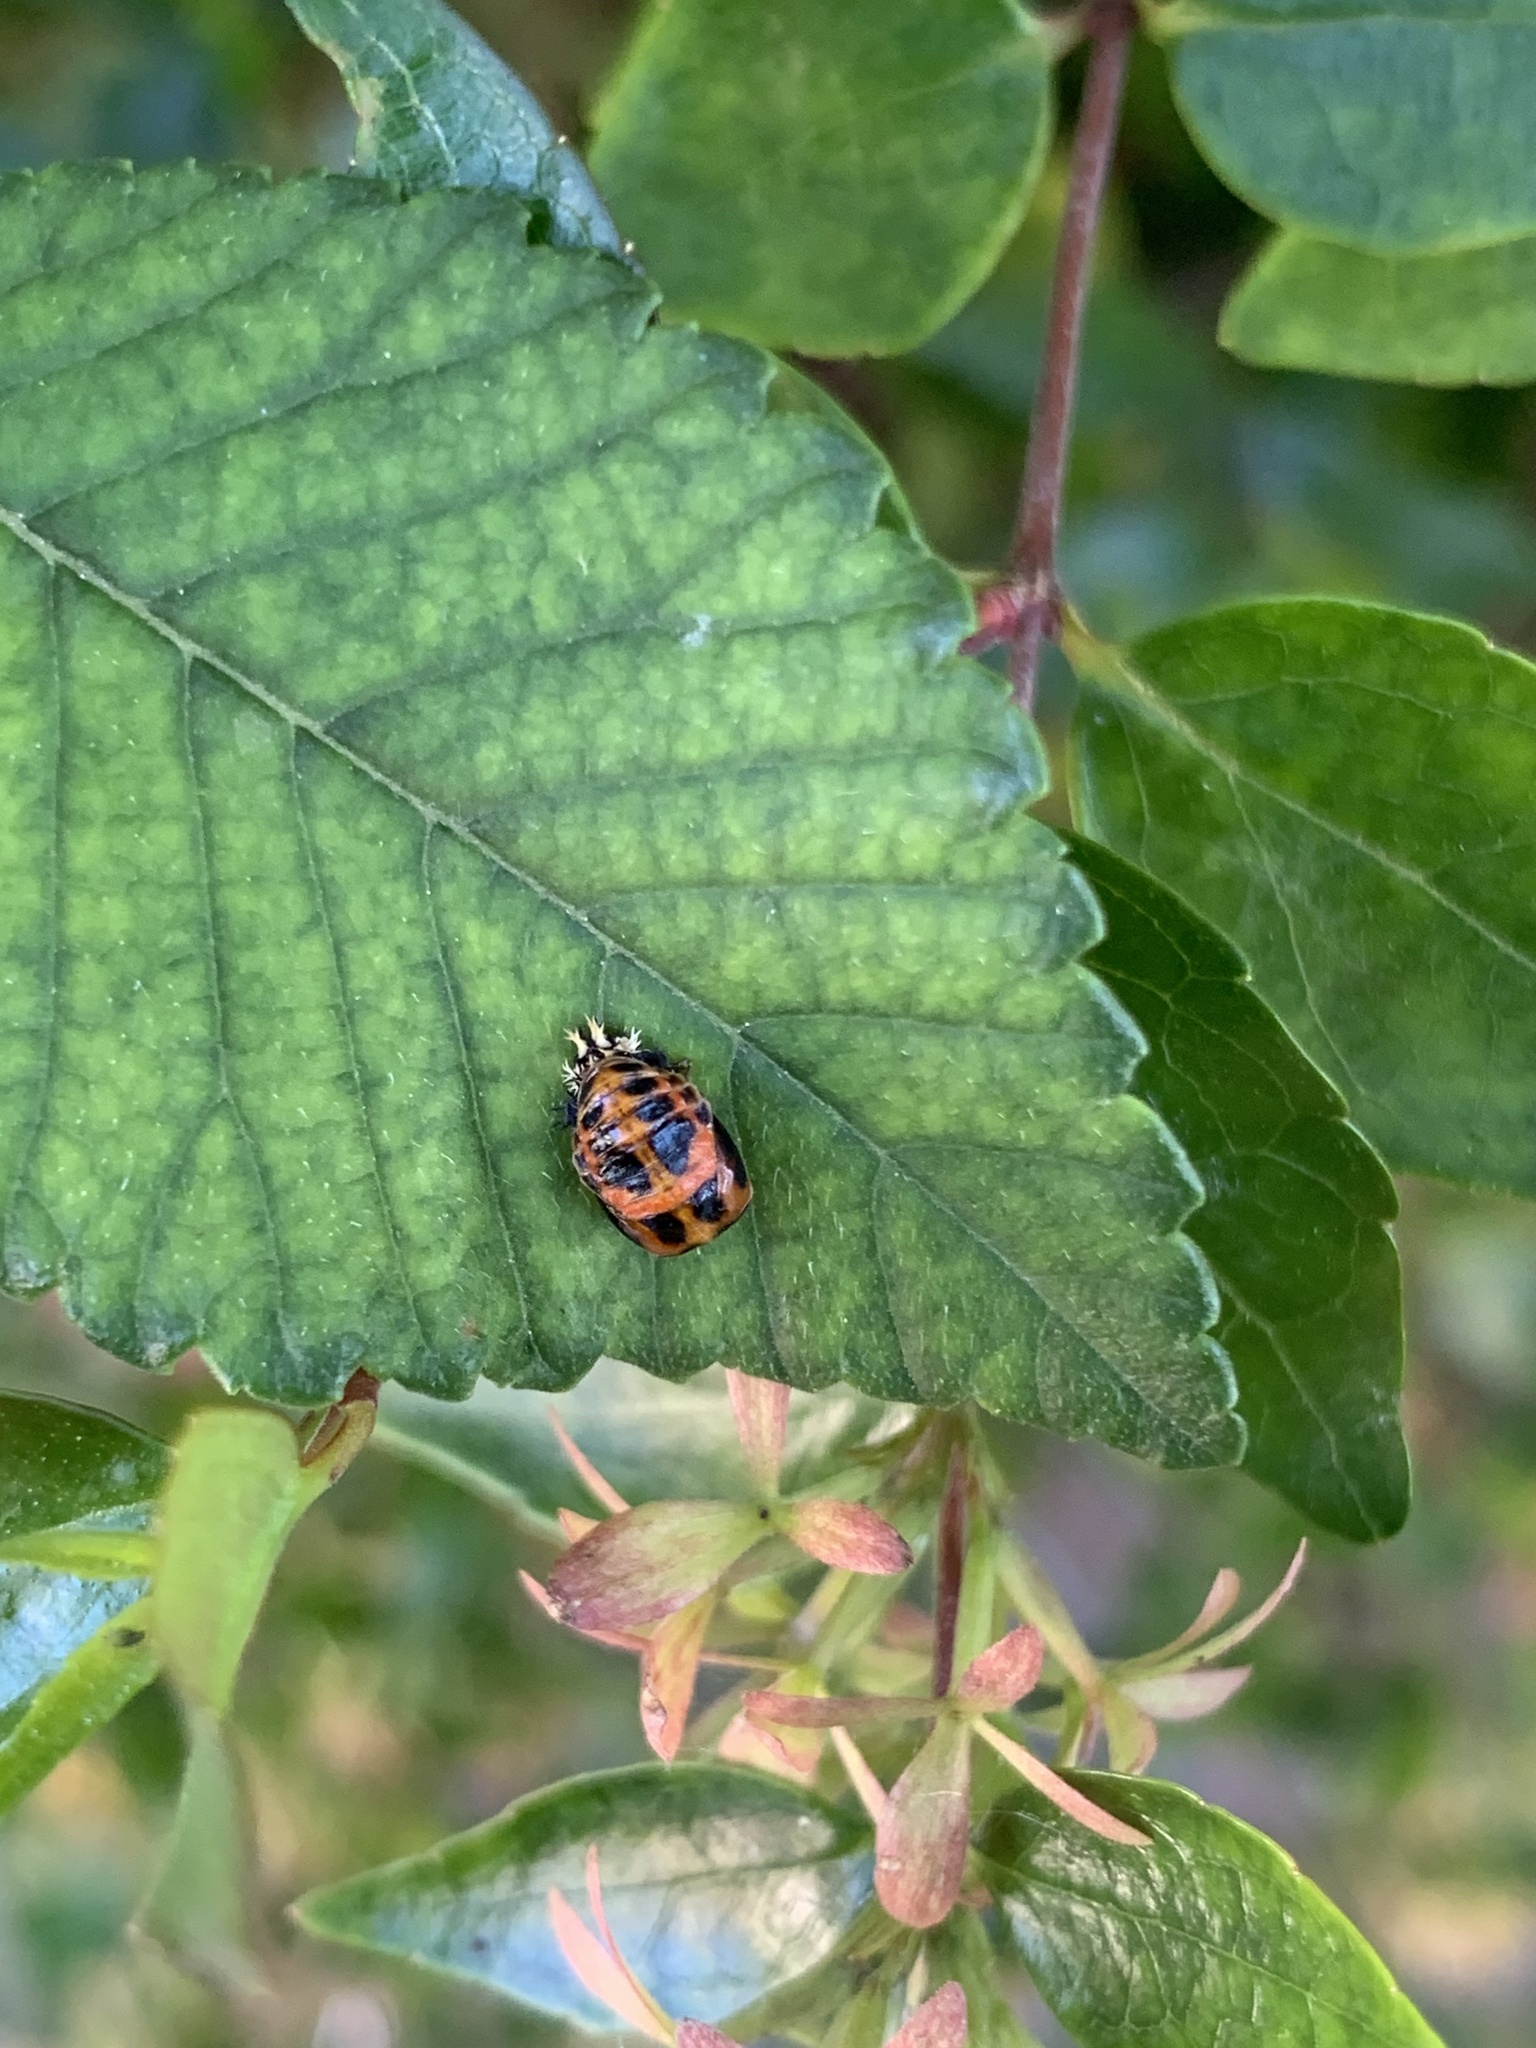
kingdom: Animalia
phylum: Arthropoda
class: Insecta
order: Coleoptera
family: Coccinellidae
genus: Harmonia
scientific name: Harmonia axyridis
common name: Harlequin ladybird
